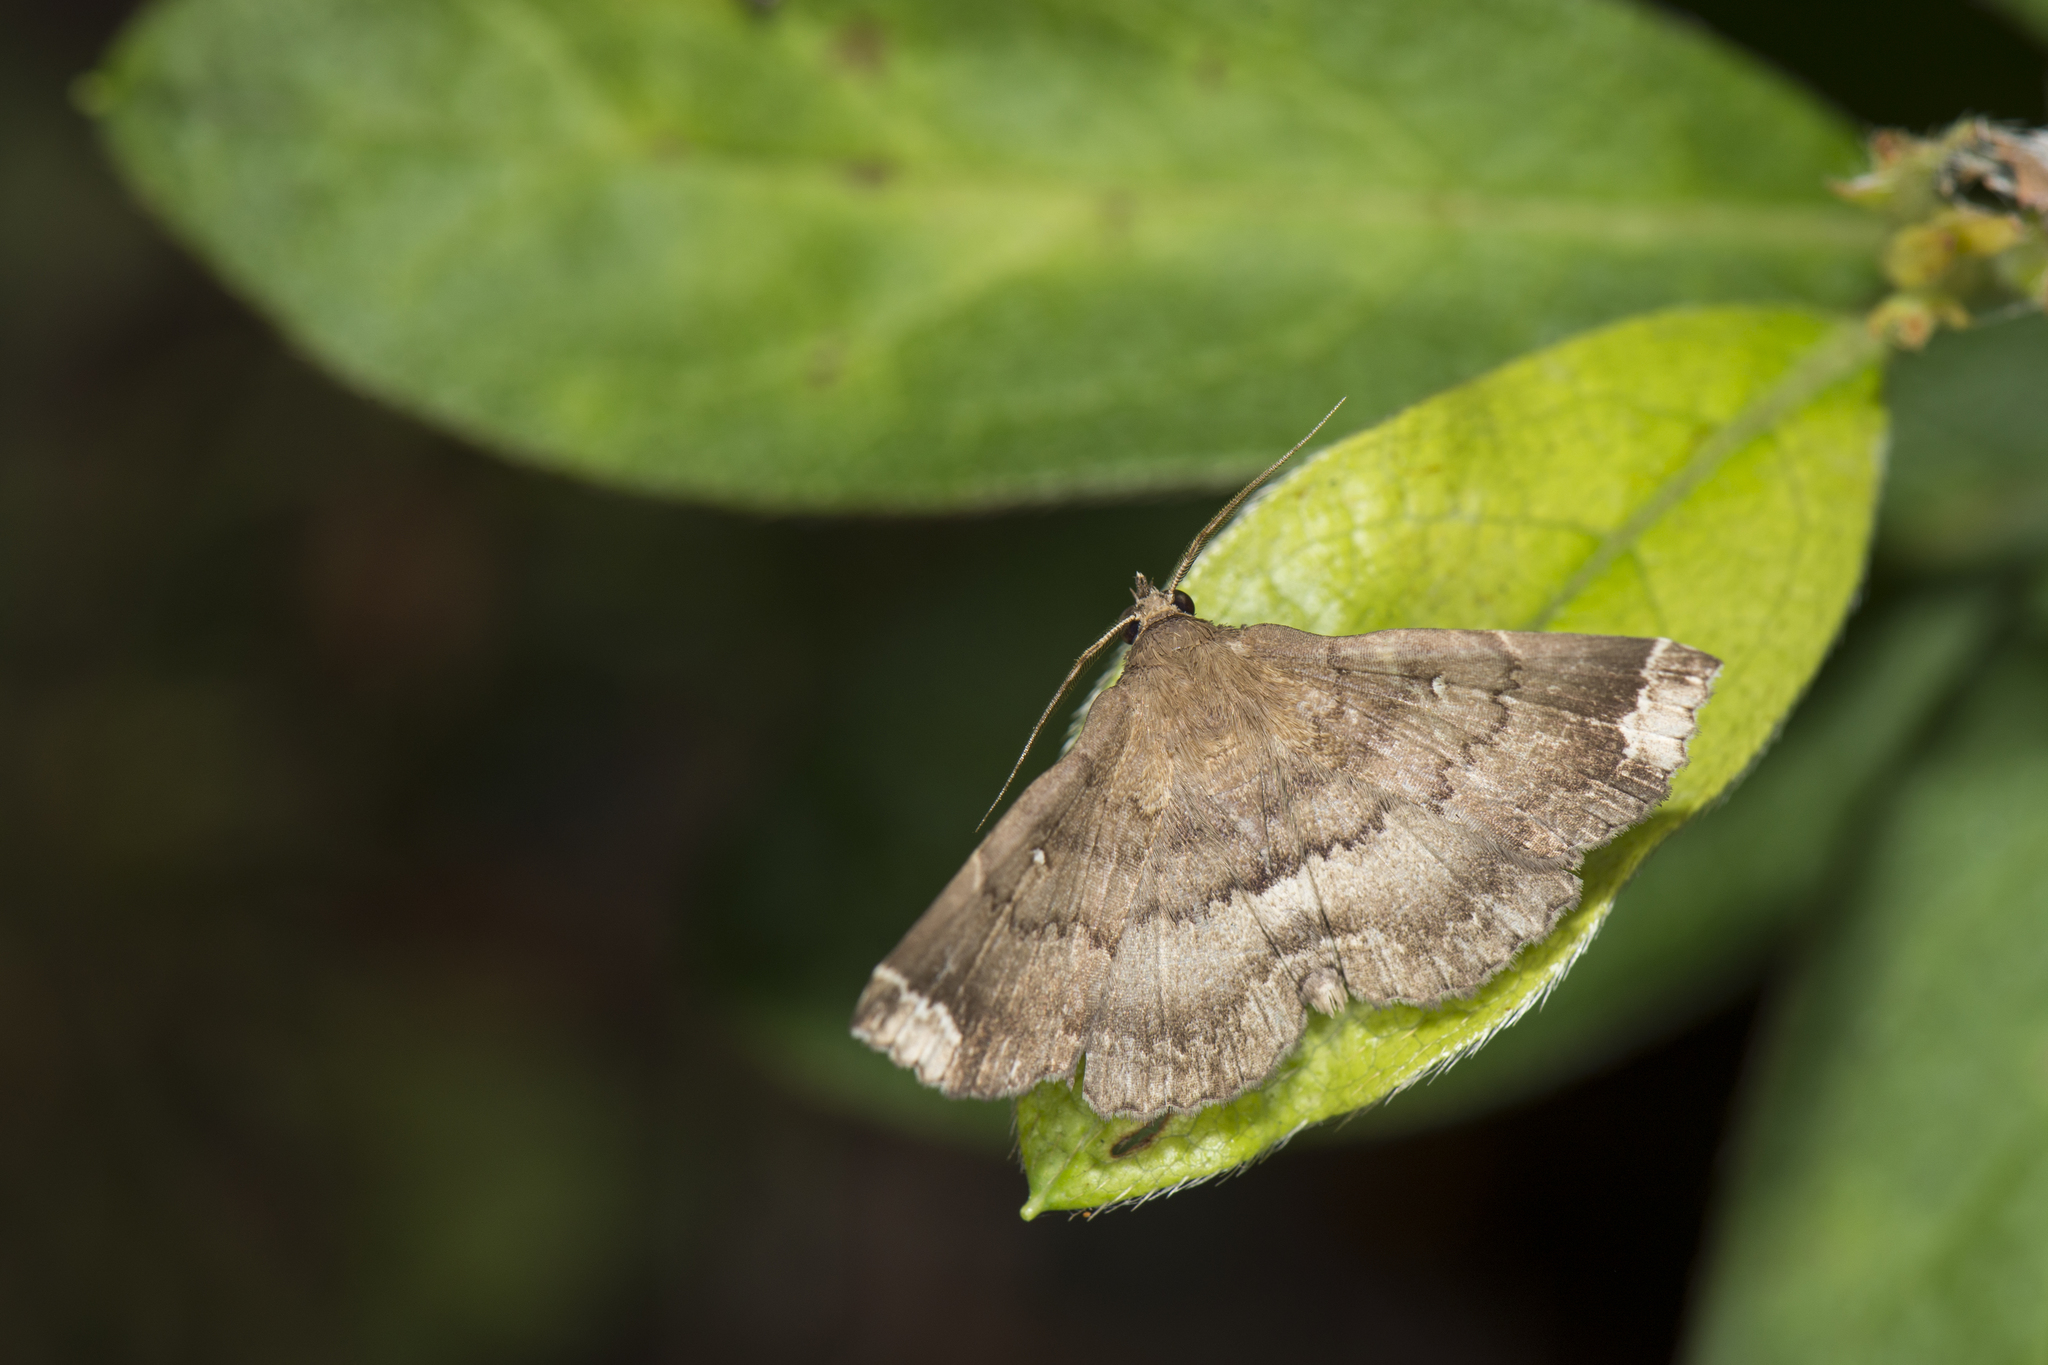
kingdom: Animalia
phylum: Arthropoda
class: Insecta
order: Lepidoptera
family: Erebidae
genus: Adrapsa
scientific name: Adrapsa quadrilinealis
